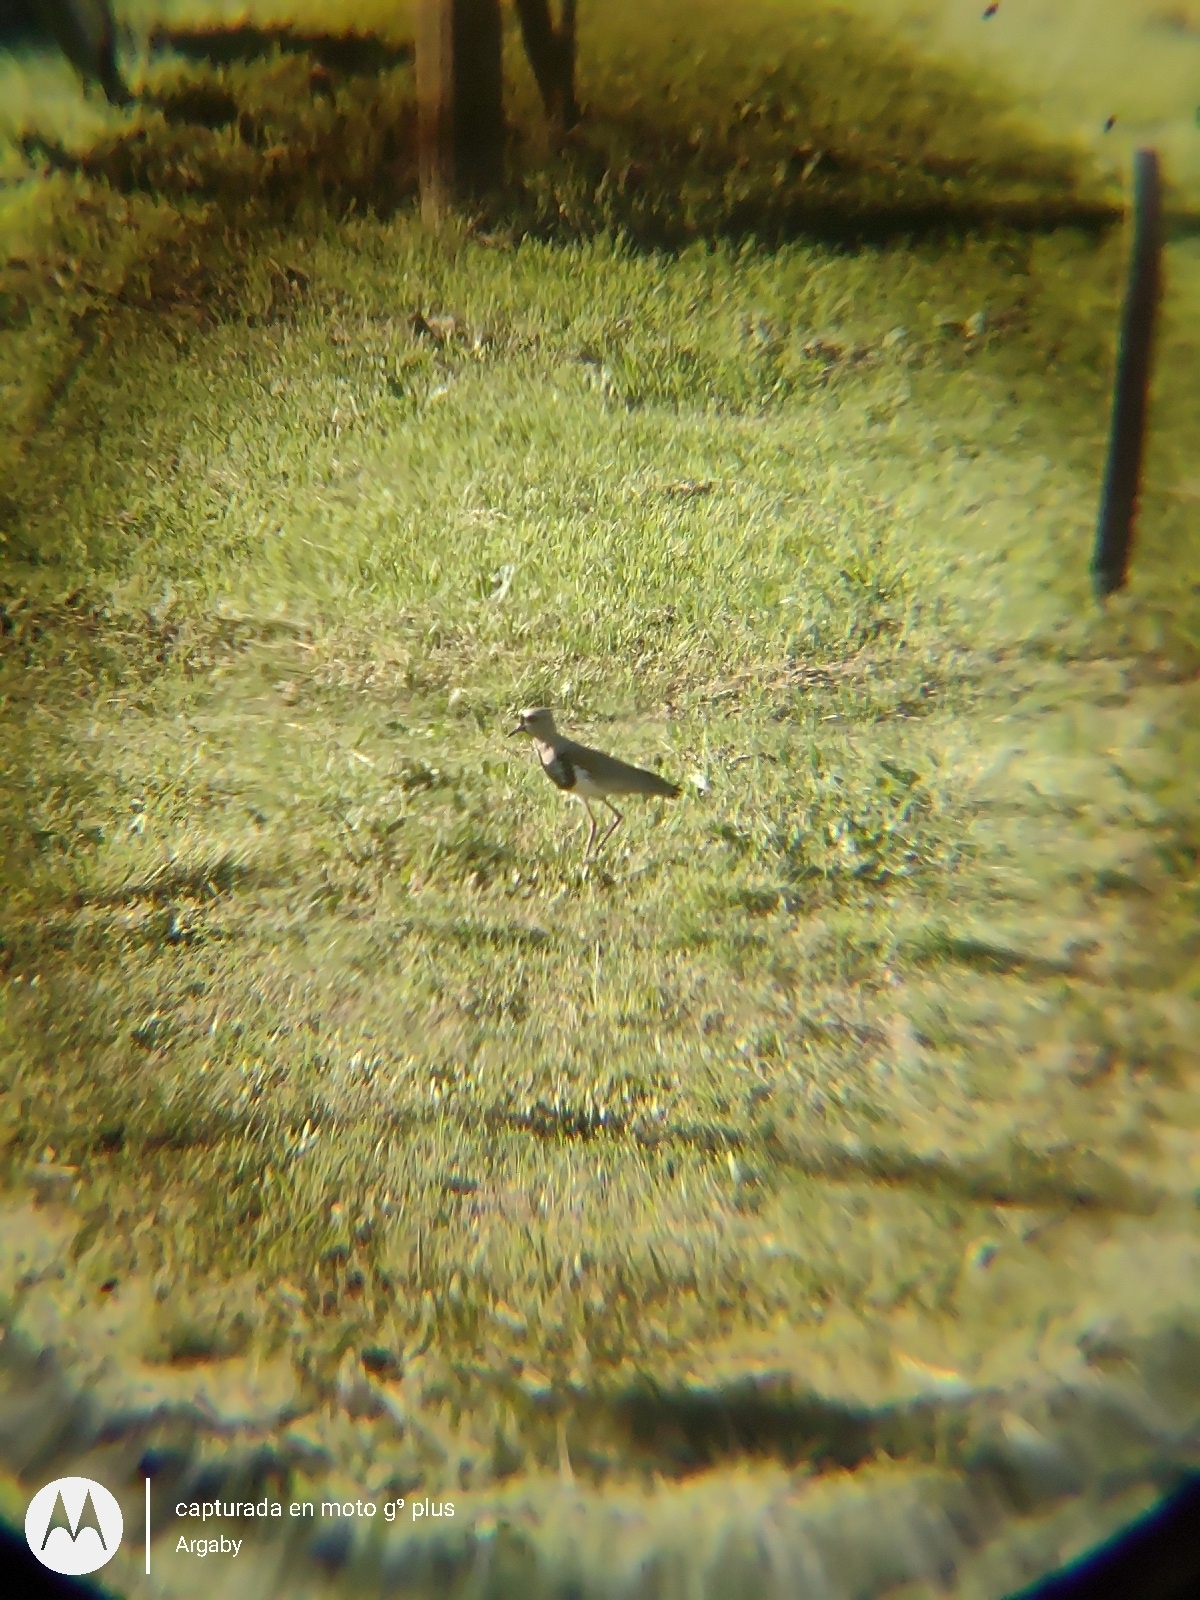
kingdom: Animalia
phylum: Chordata
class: Aves
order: Charadriiformes
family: Charadriidae
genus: Vanellus
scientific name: Vanellus chilensis
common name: Southern lapwing
